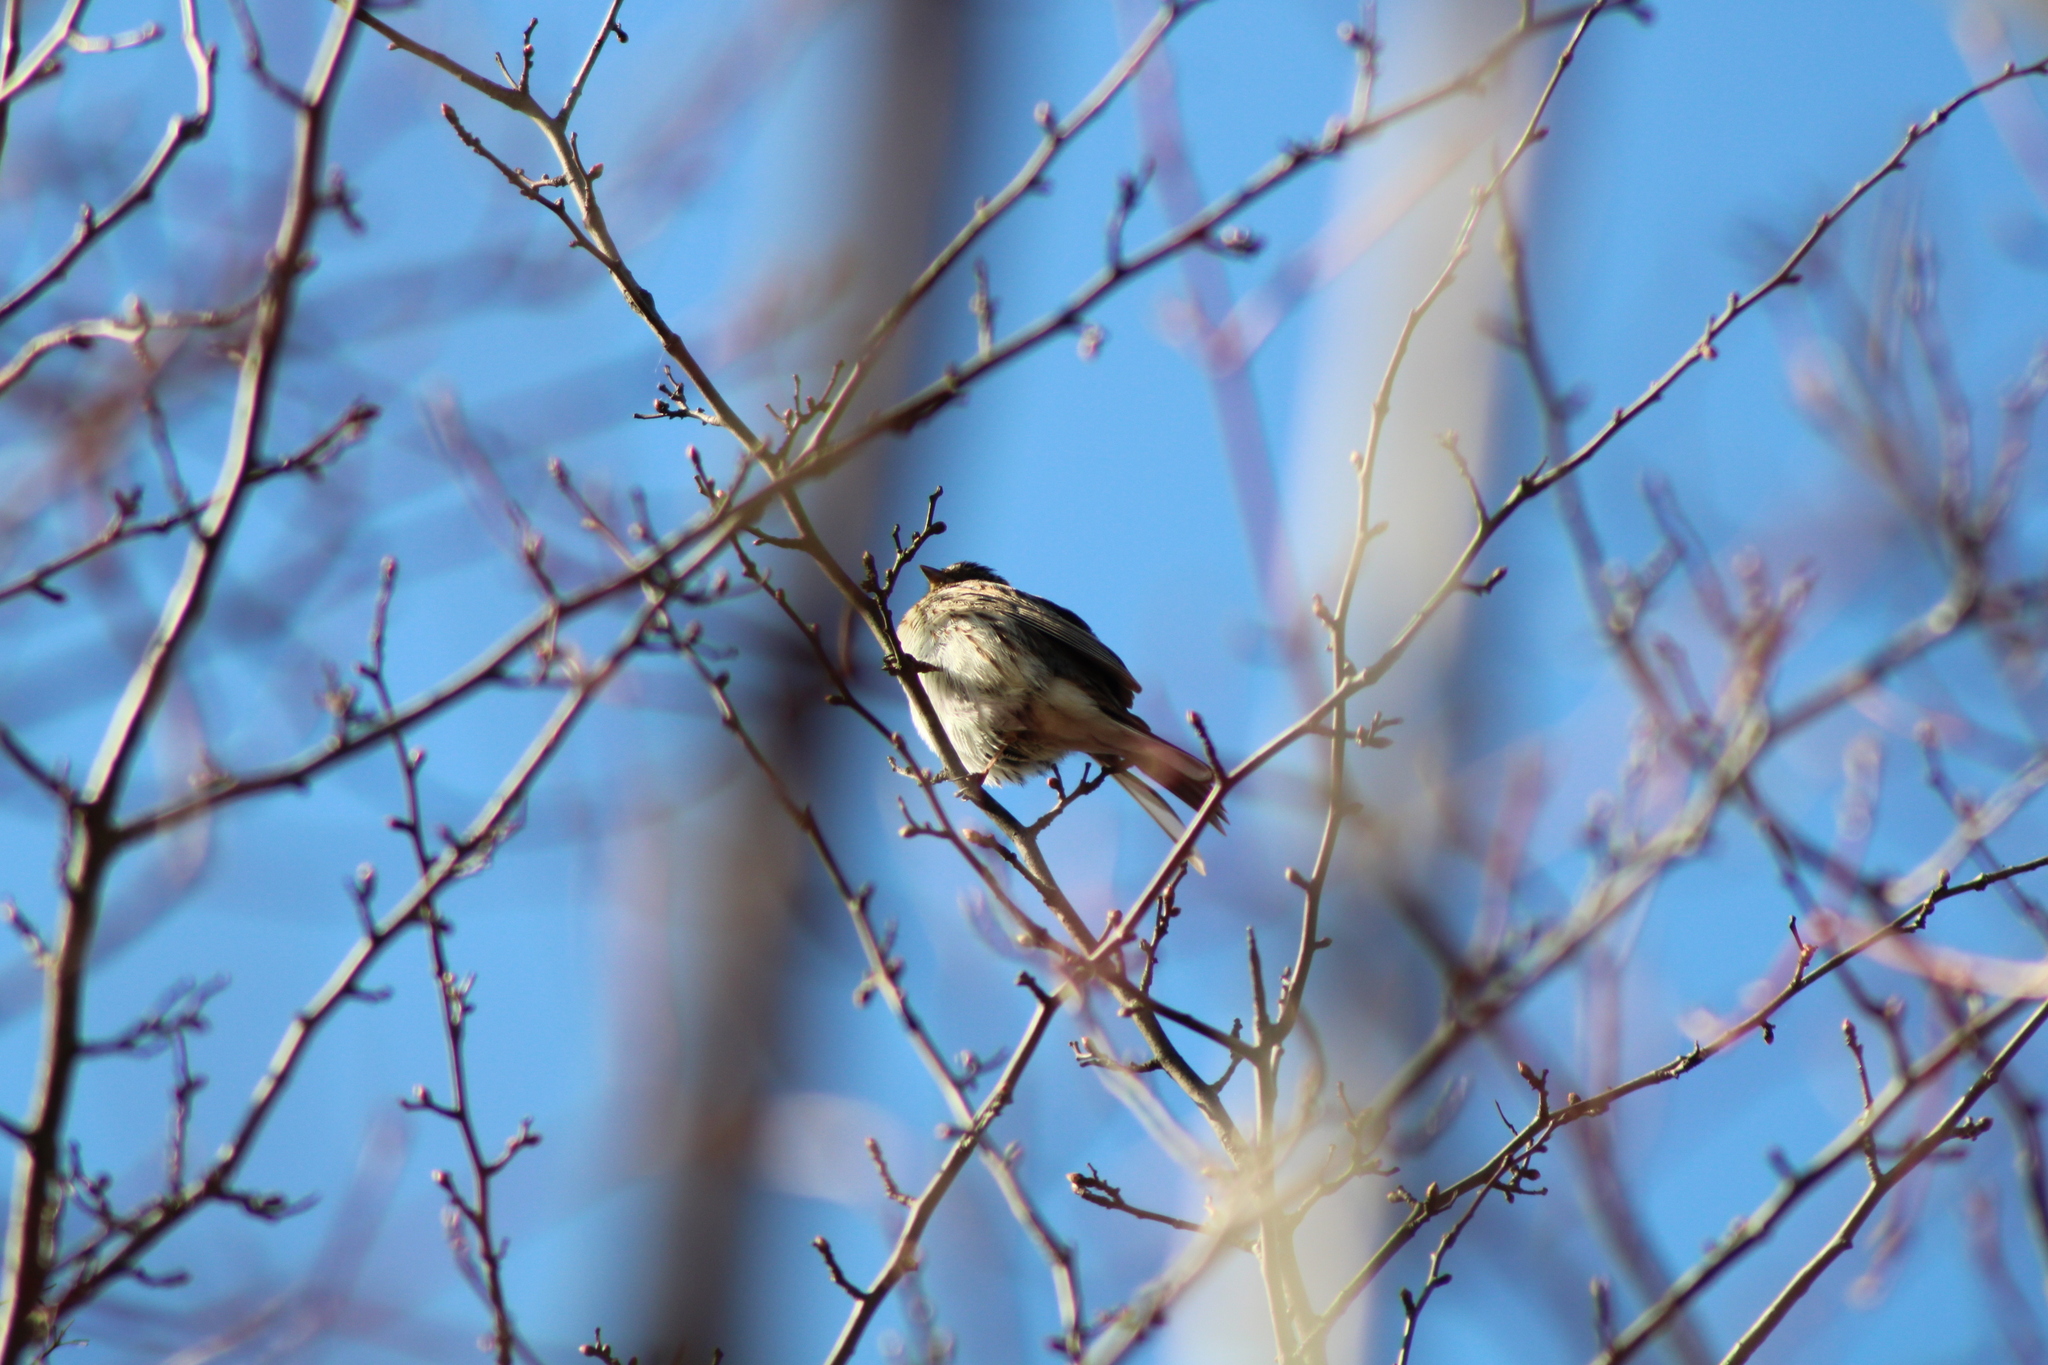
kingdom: Animalia
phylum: Chordata
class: Aves
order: Passeriformes
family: Emberizidae
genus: Emberiza
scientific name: Emberiza schoeniclus
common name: Reed bunting
